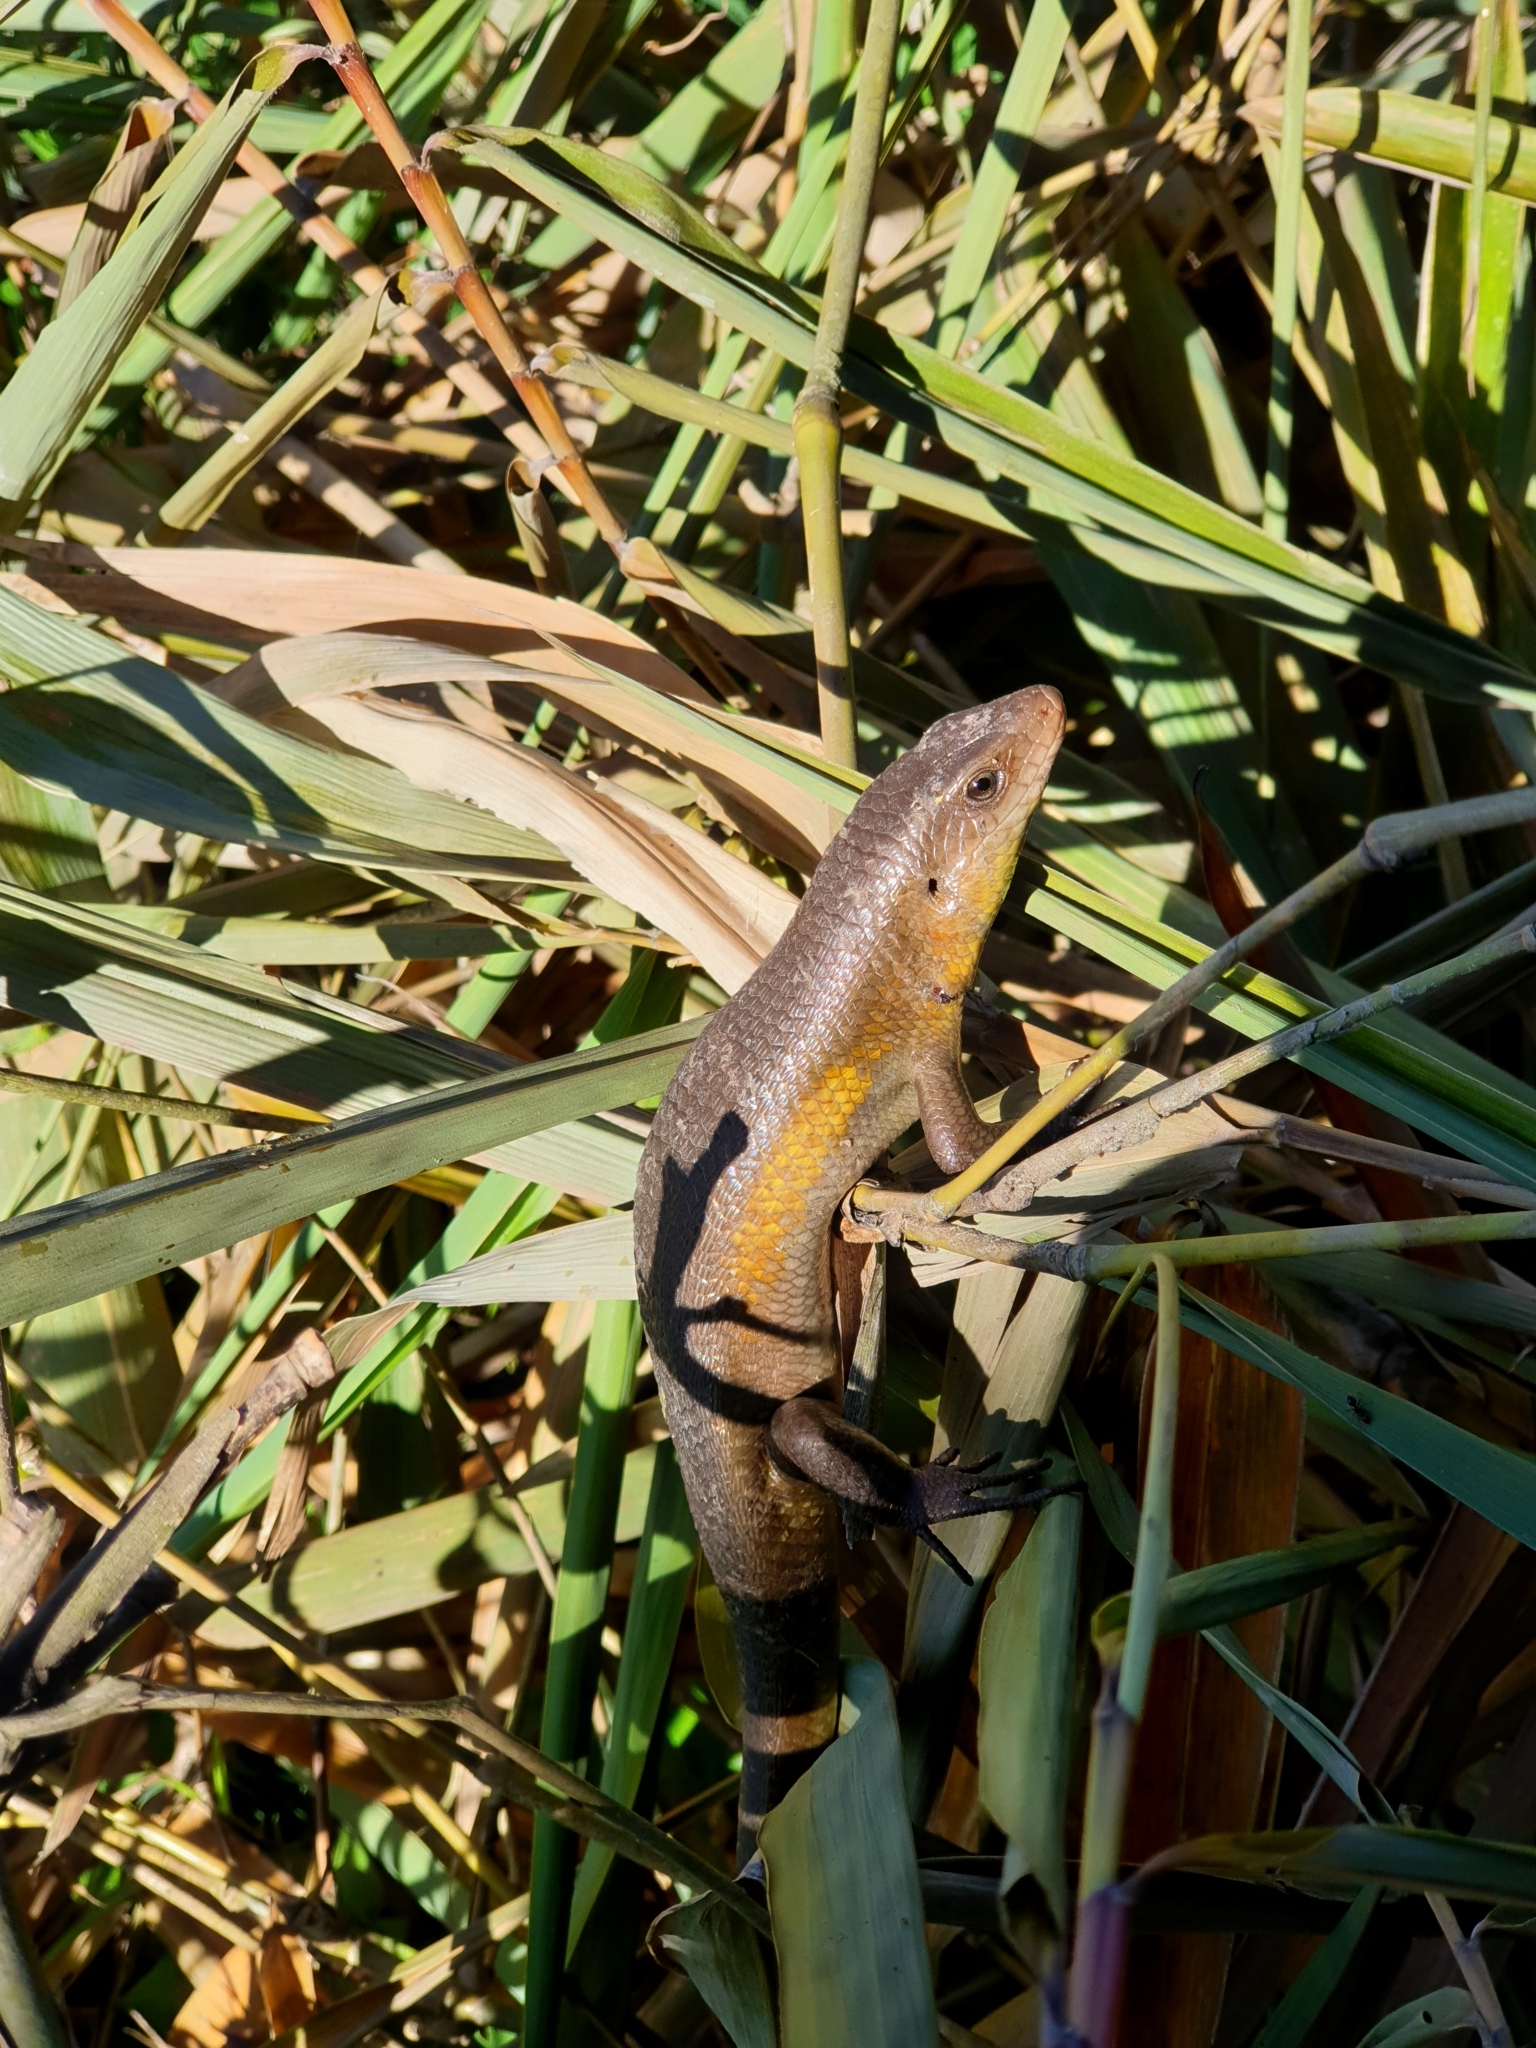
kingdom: Animalia
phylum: Chordata
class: Squamata
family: Scincidae
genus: Eutropis
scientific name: Eutropis multifasciata
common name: Common mabuya
